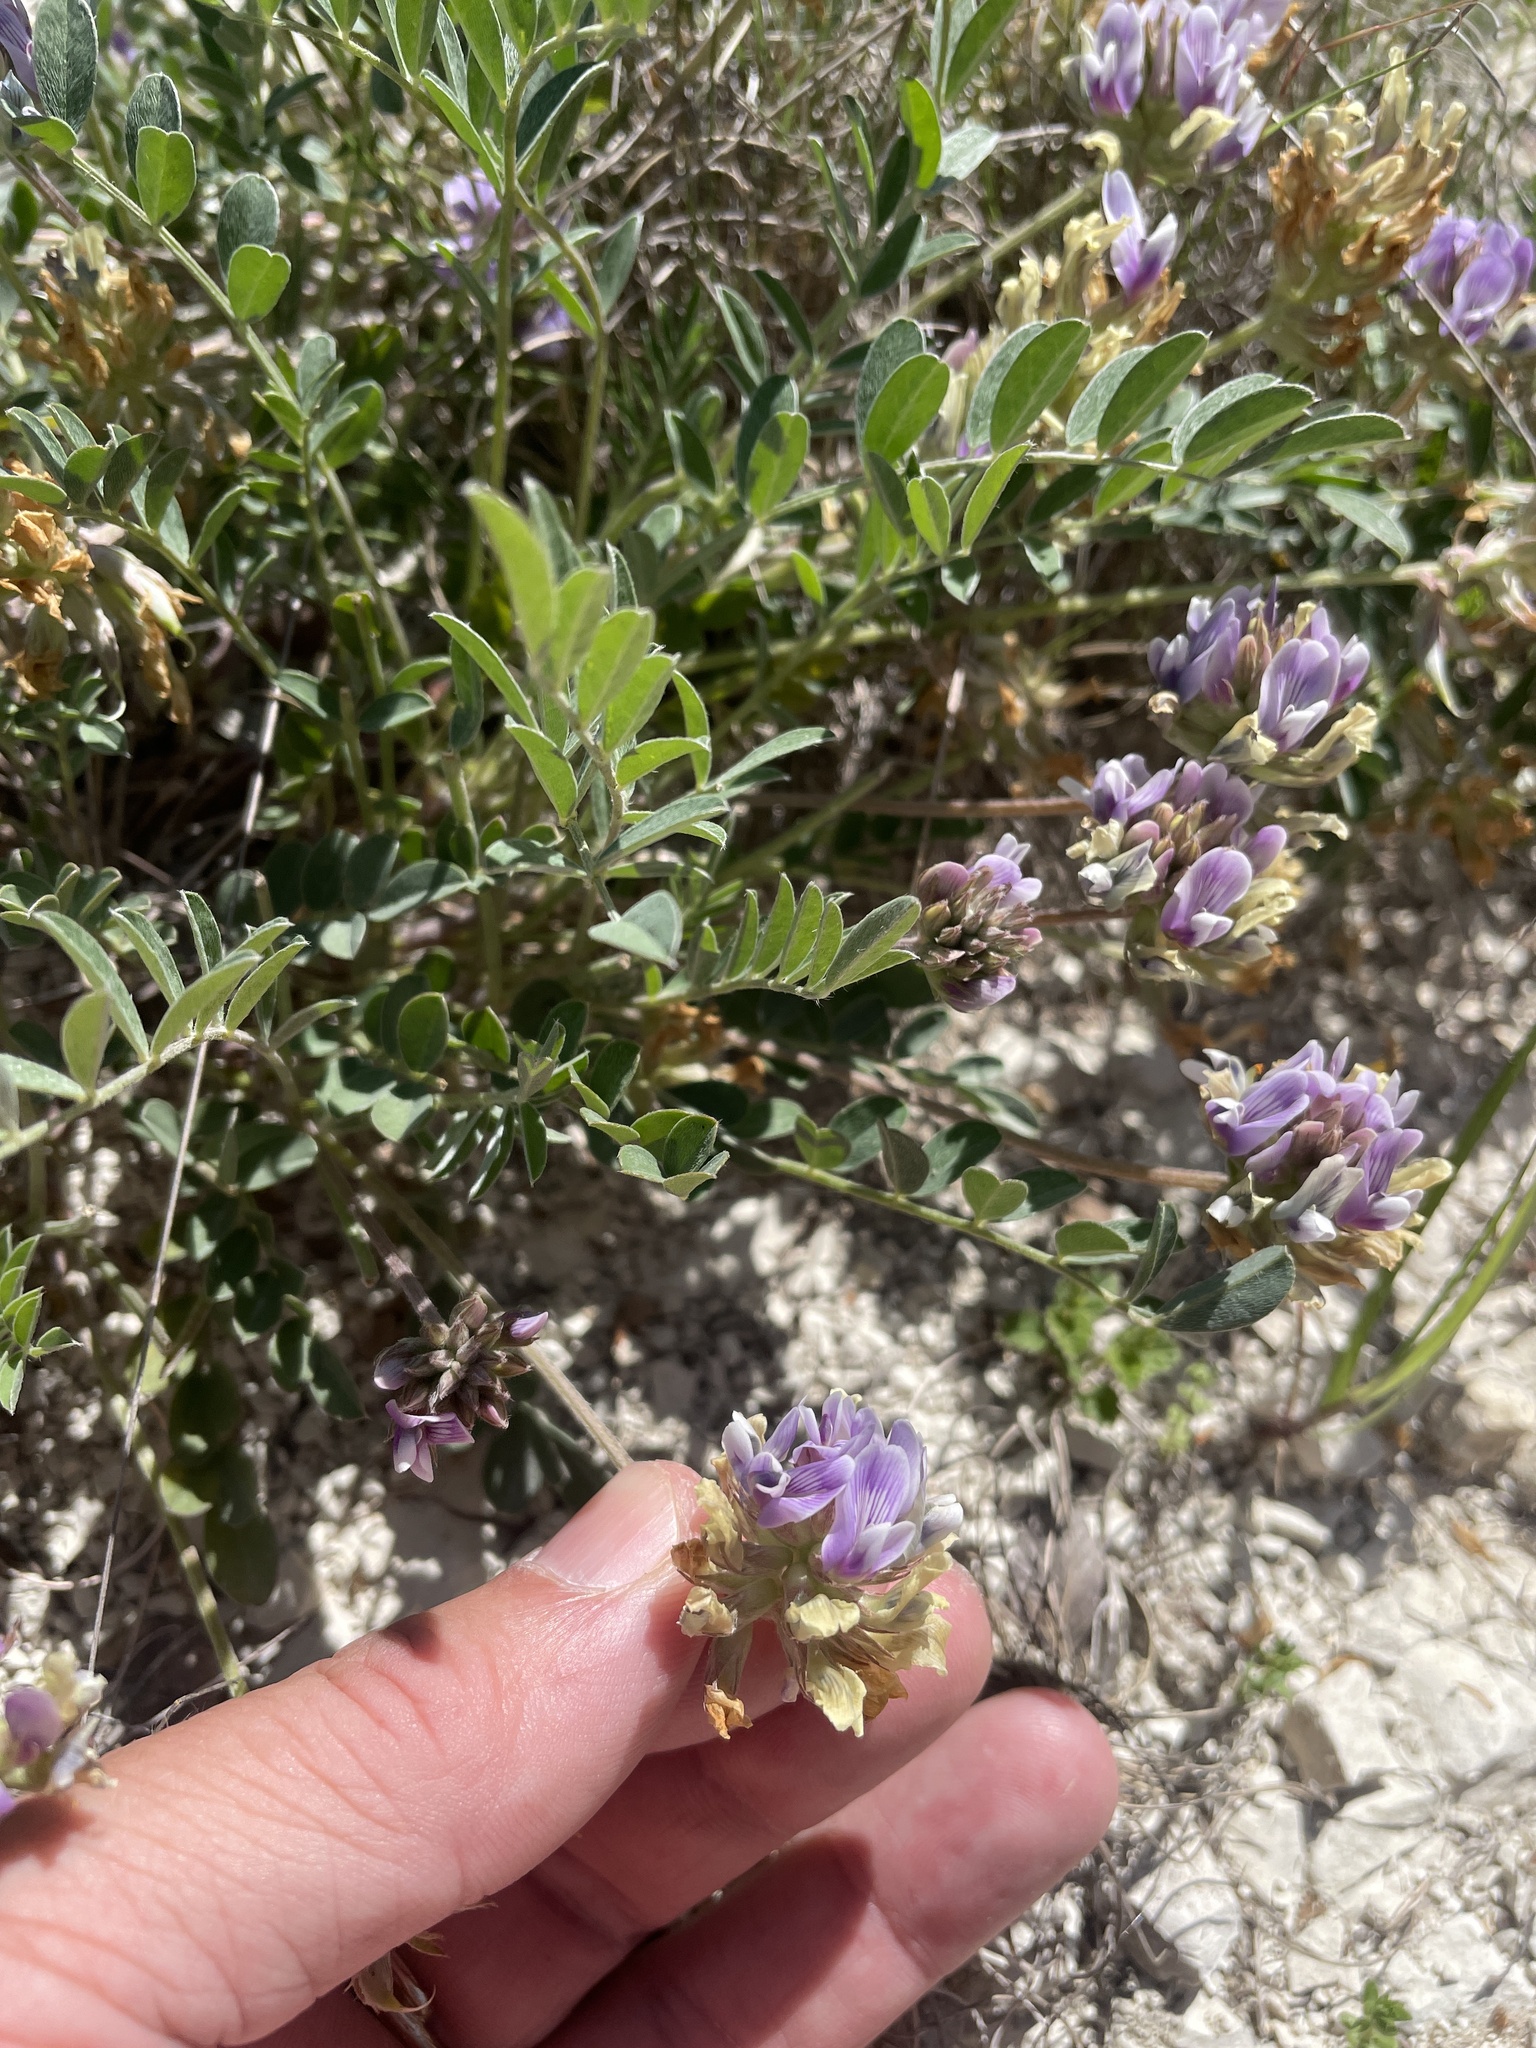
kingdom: Plantae
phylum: Tracheophyta
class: Magnoliopsida
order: Fabales
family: Fabaceae
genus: Astragalus
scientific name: Astragalus lotiflorus
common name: Lotus milk-vetch
